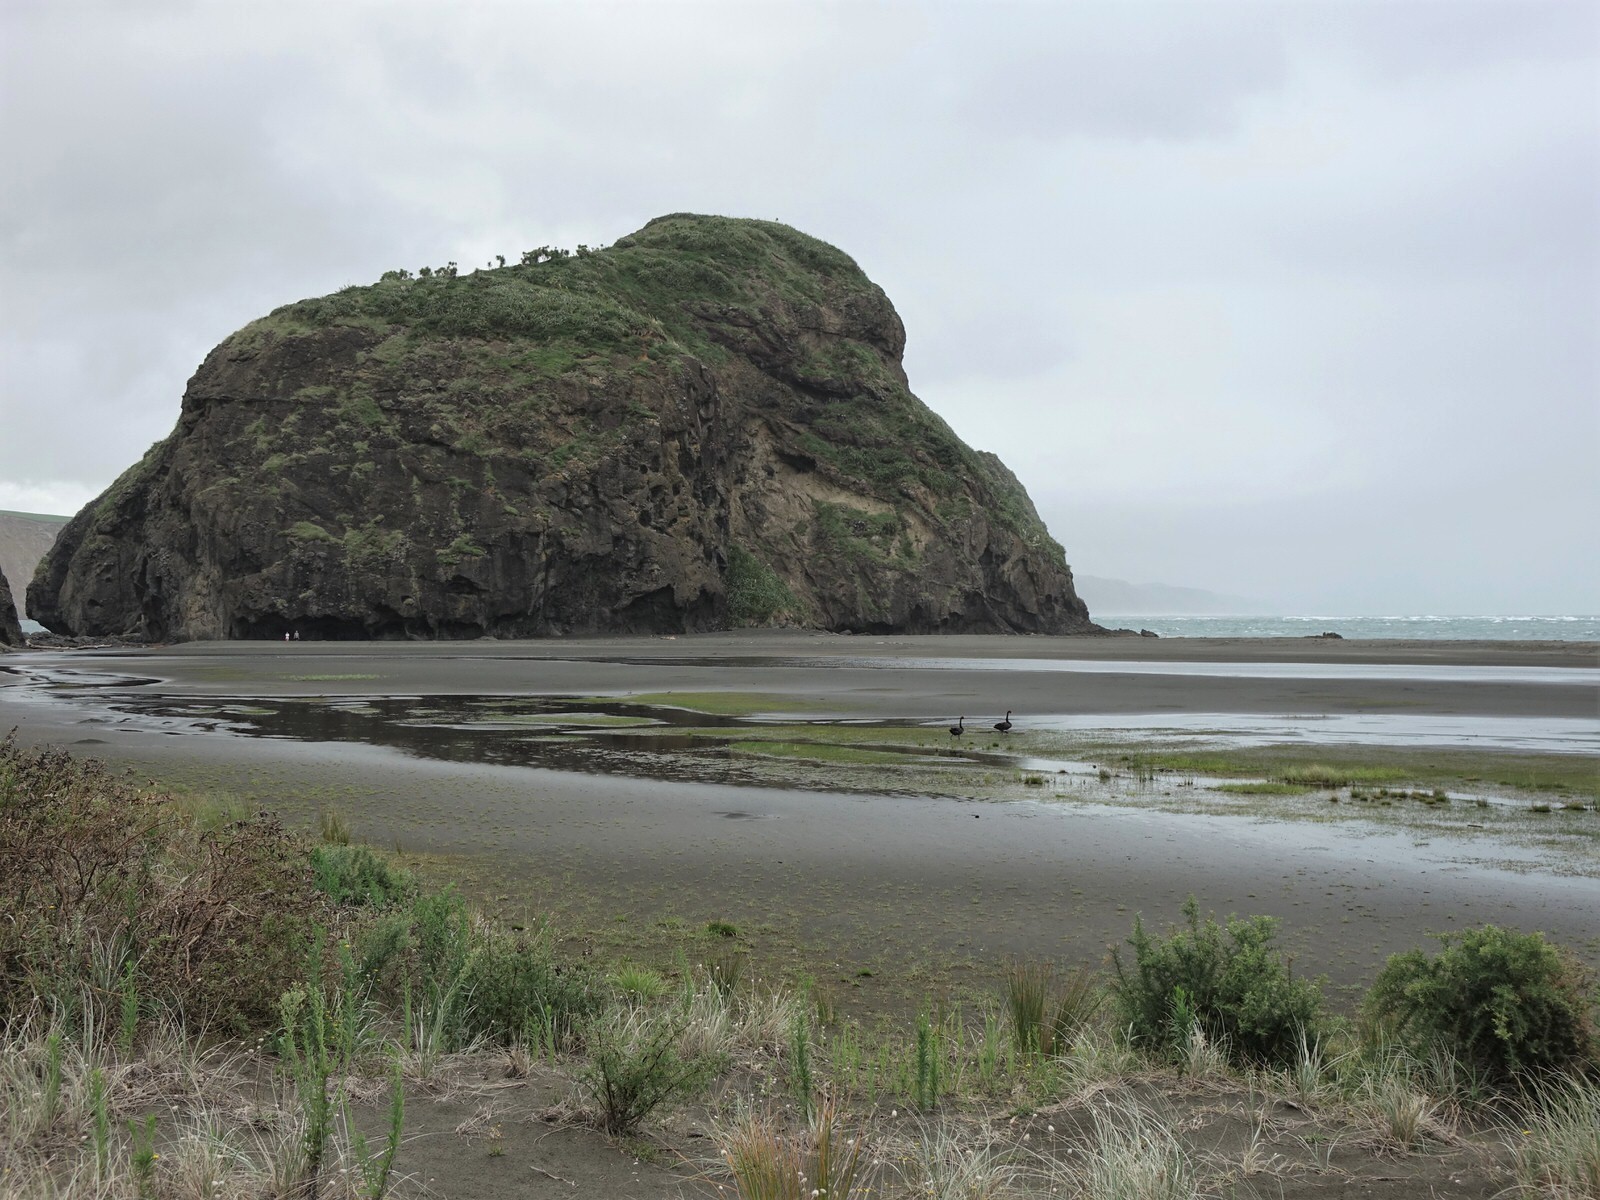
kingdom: Animalia
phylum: Chordata
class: Aves
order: Anseriformes
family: Anatidae
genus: Cygnus
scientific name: Cygnus atratus
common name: Black swan
